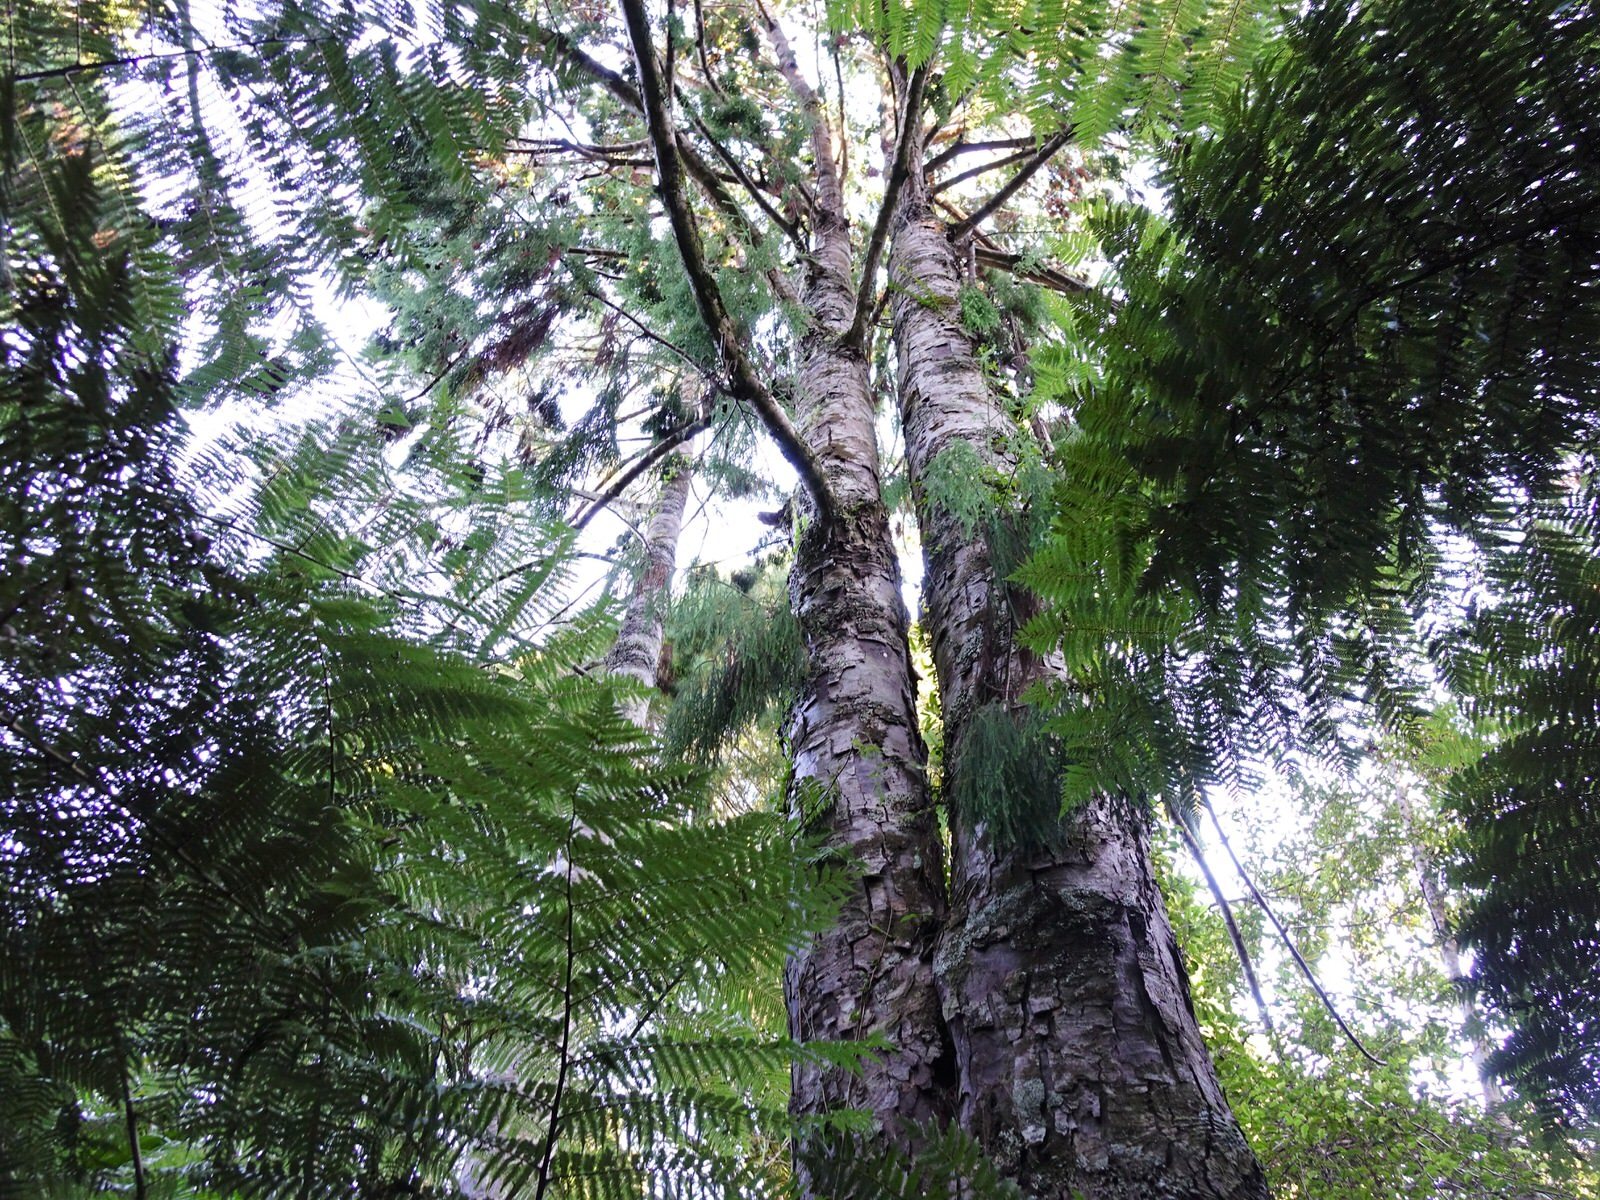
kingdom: Plantae
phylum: Tracheophyta
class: Pinopsida
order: Pinales
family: Podocarpaceae
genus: Dacrydium
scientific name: Dacrydium cupressinum
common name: Red pine
